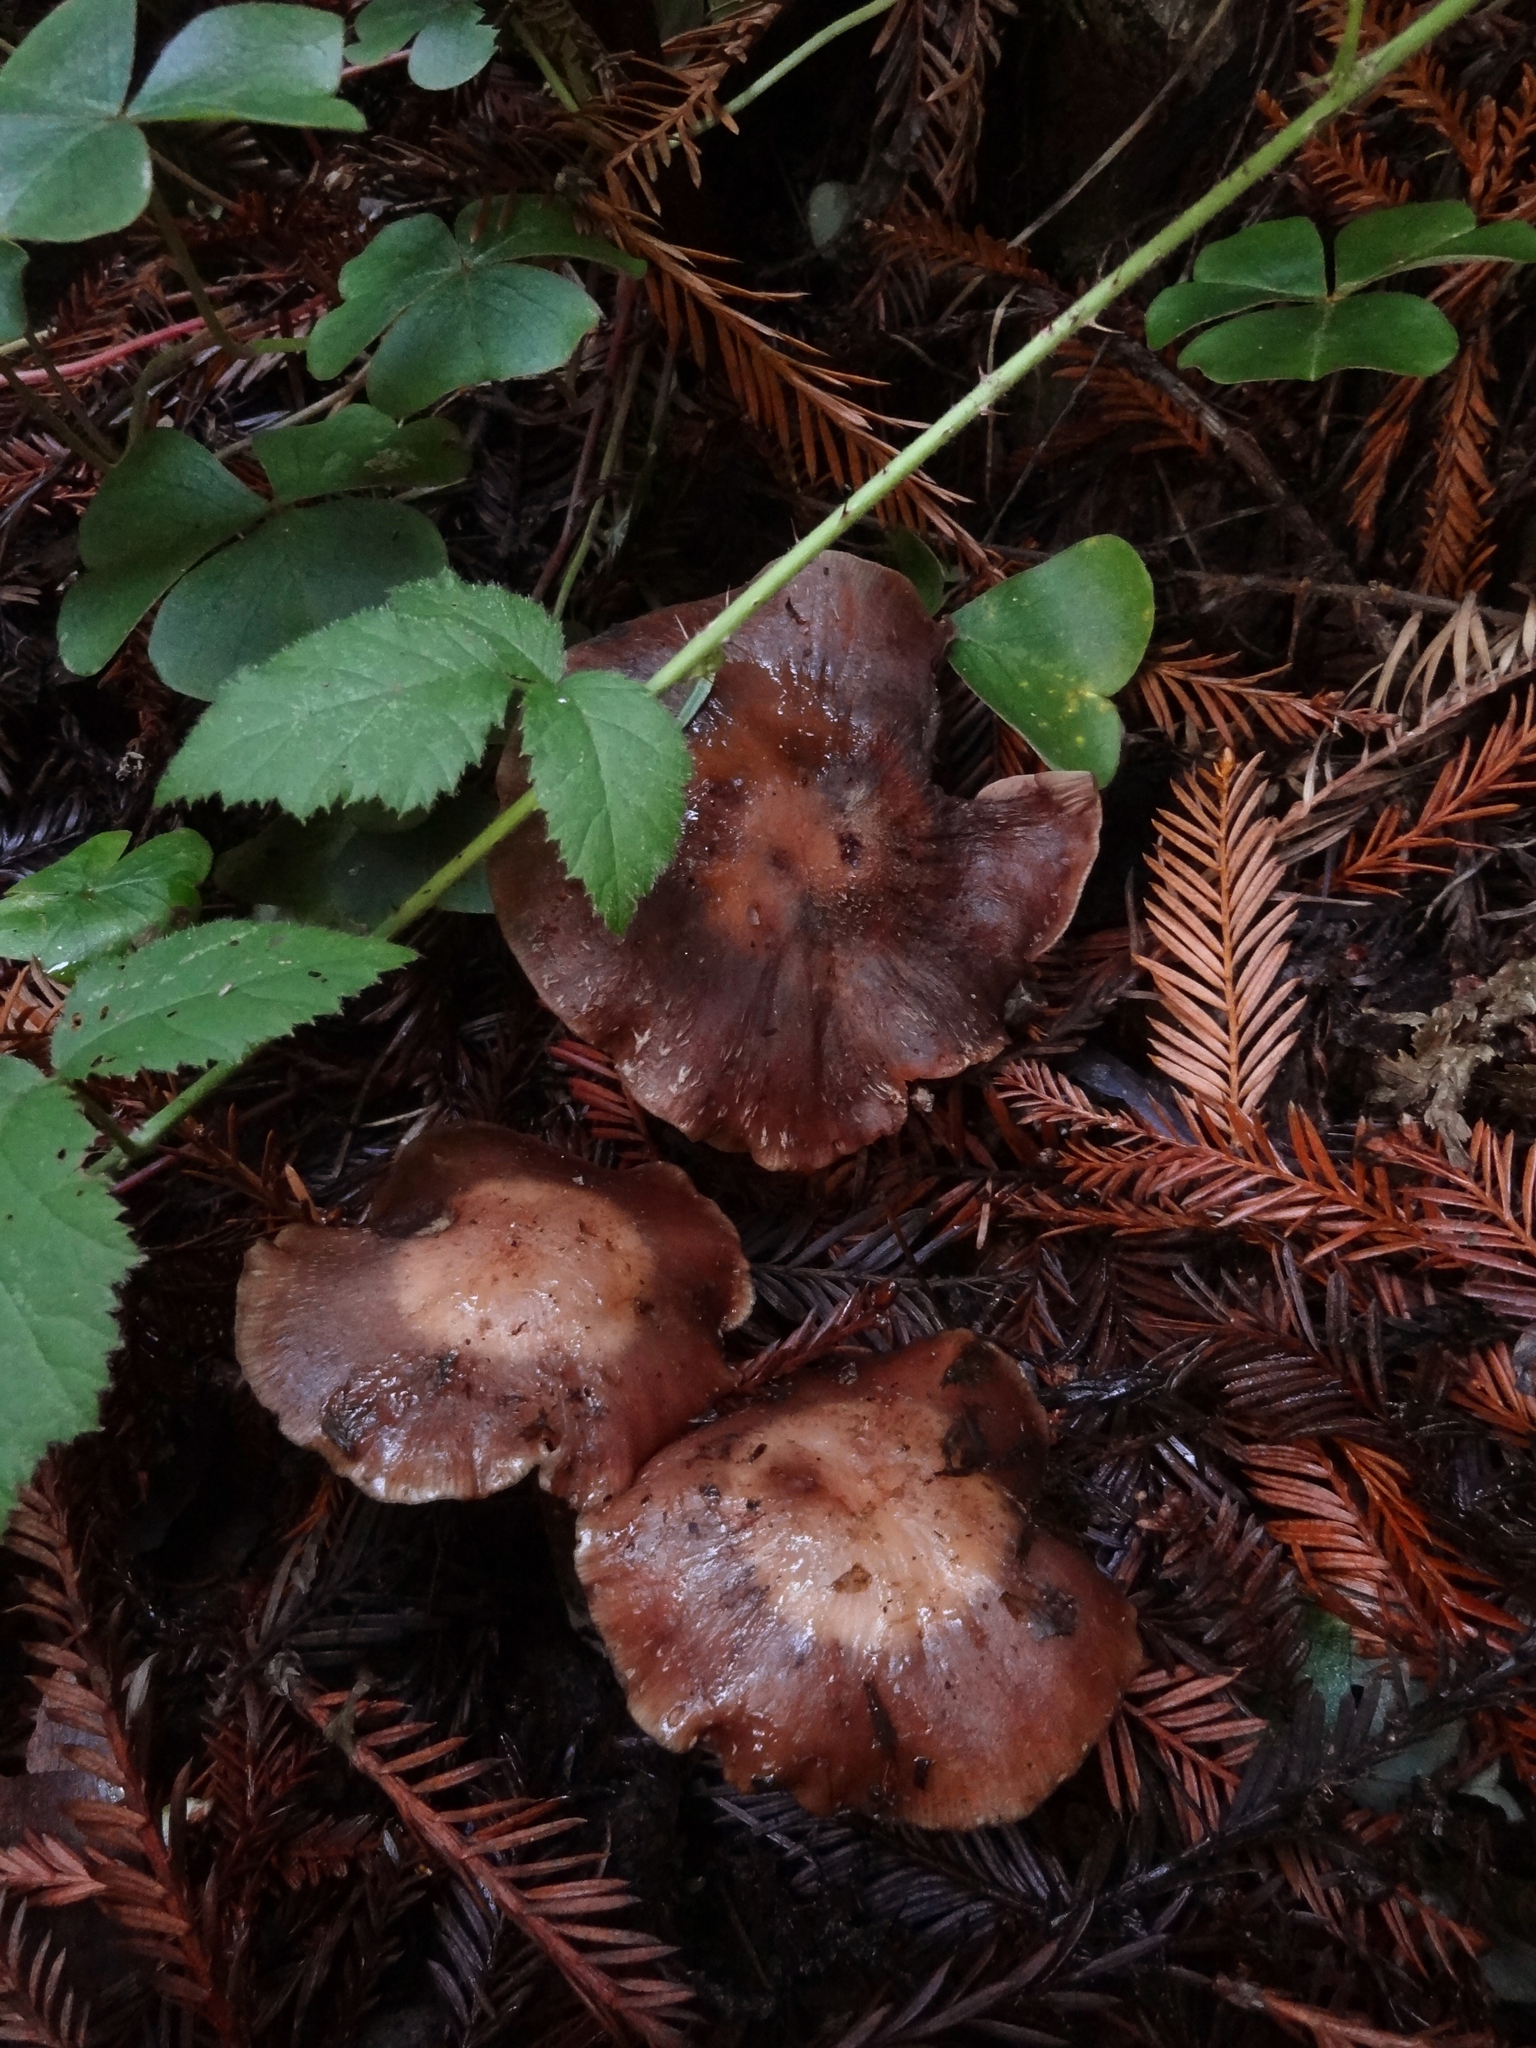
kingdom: Fungi
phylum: Basidiomycota
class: Agaricomycetes
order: Agaricales
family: Physalacriaceae
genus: Armillaria
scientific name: Armillaria sinapina
